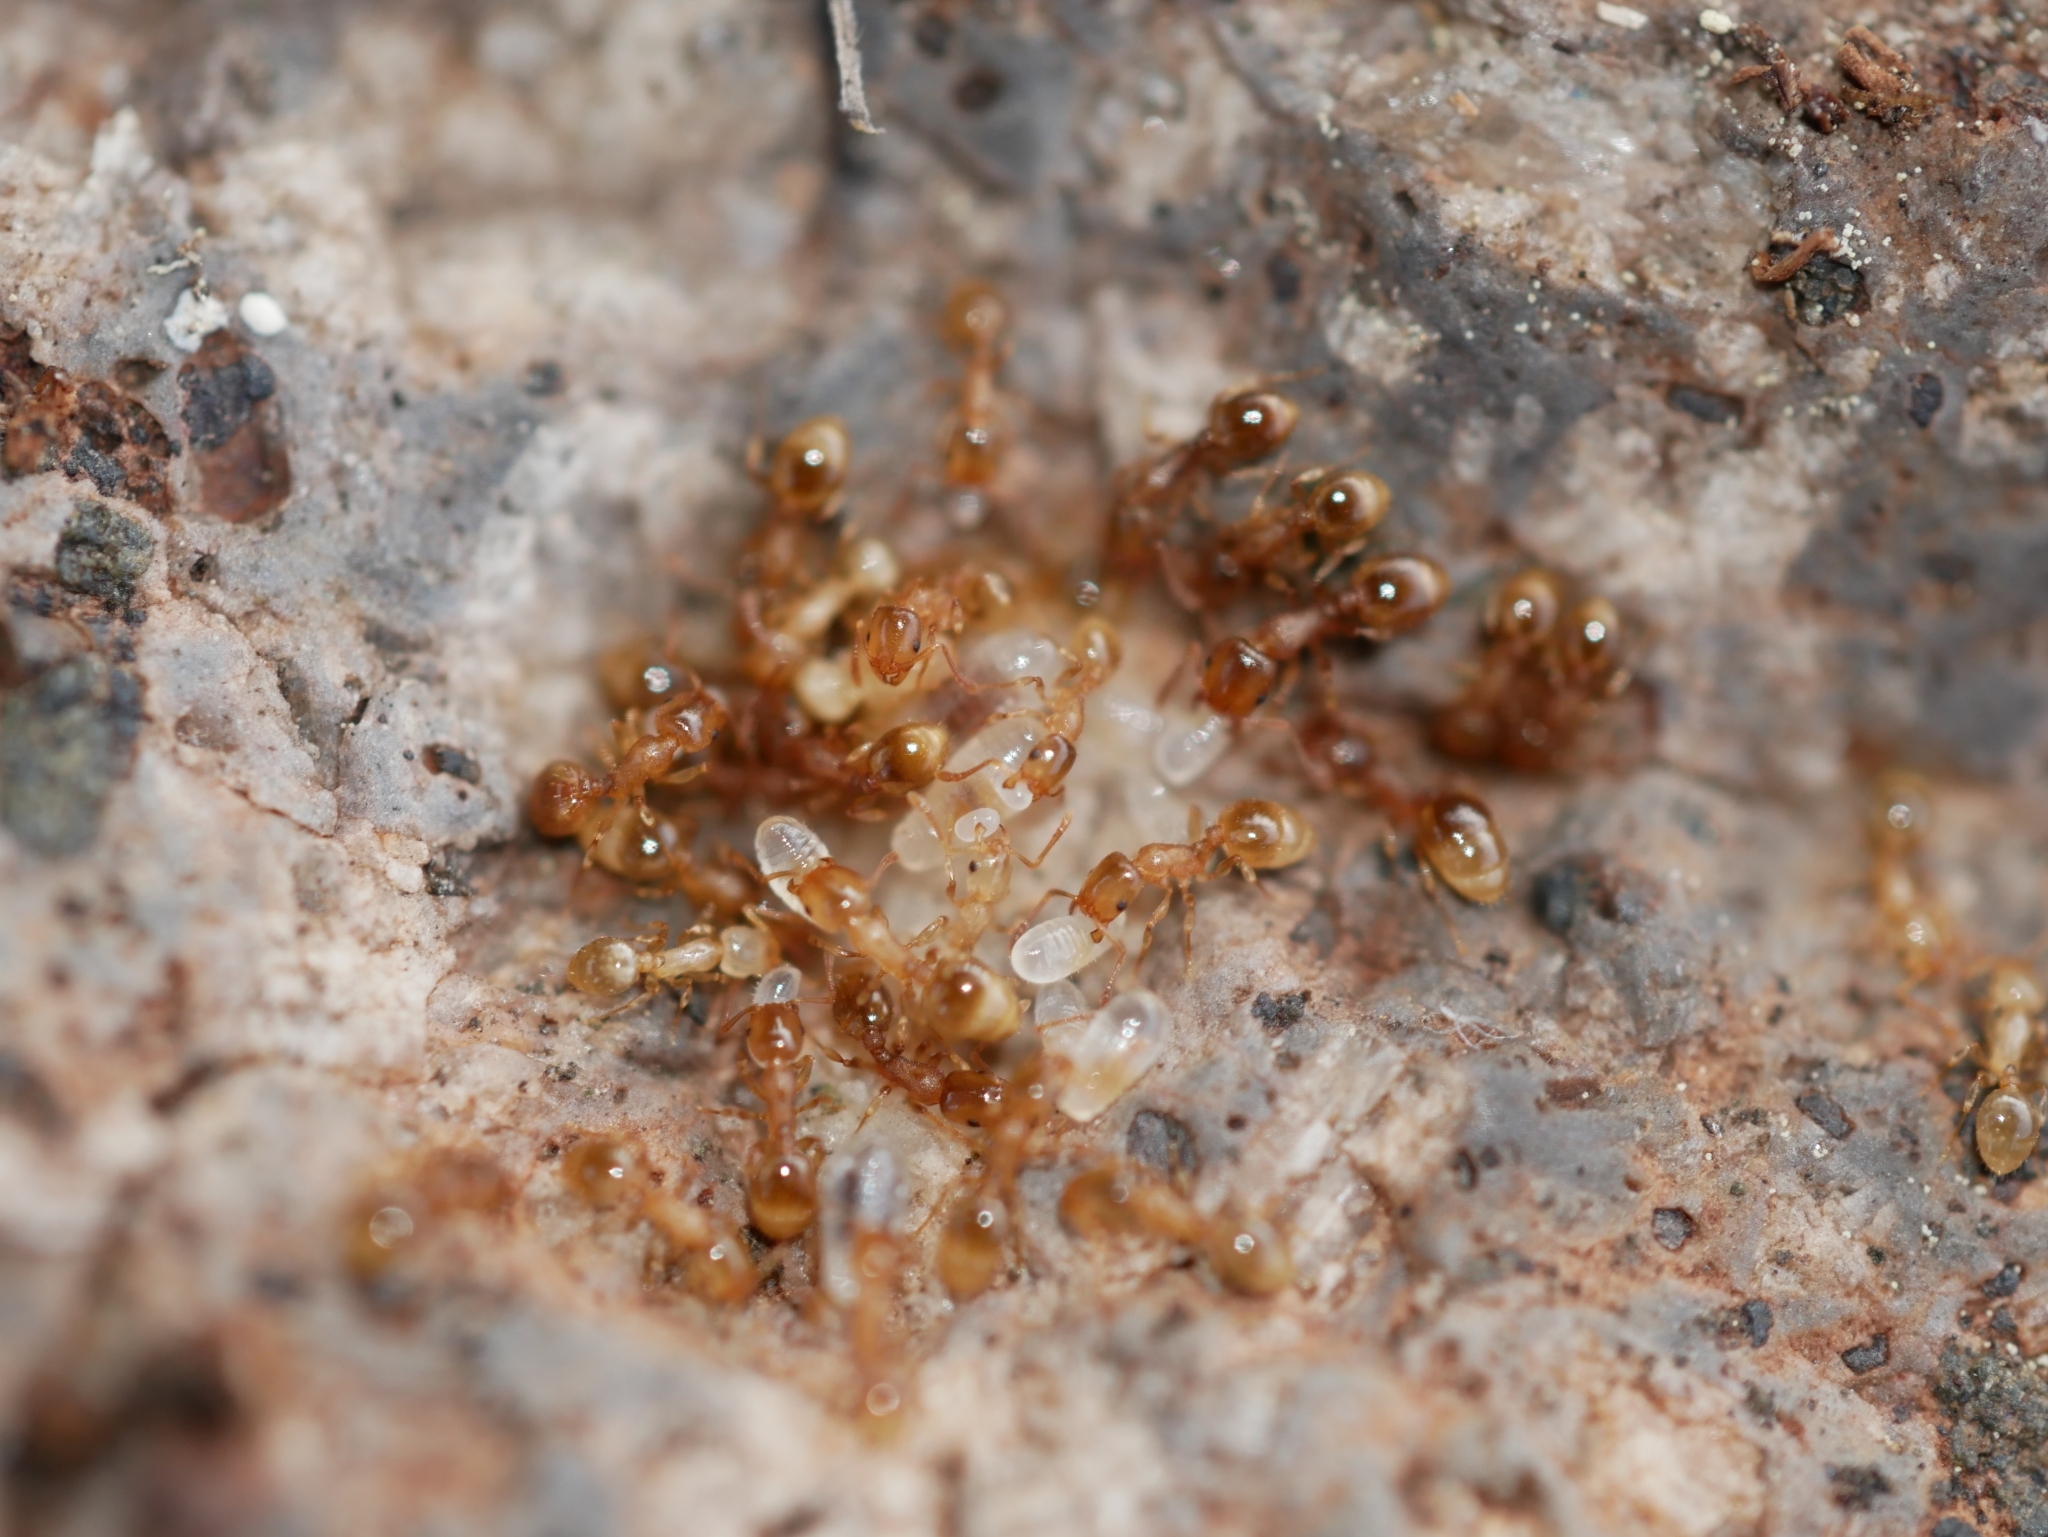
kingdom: Animalia
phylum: Arthropoda
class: Insecta
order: Hymenoptera
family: Formicidae
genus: Leptothorax
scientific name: Leptothorax nitens
